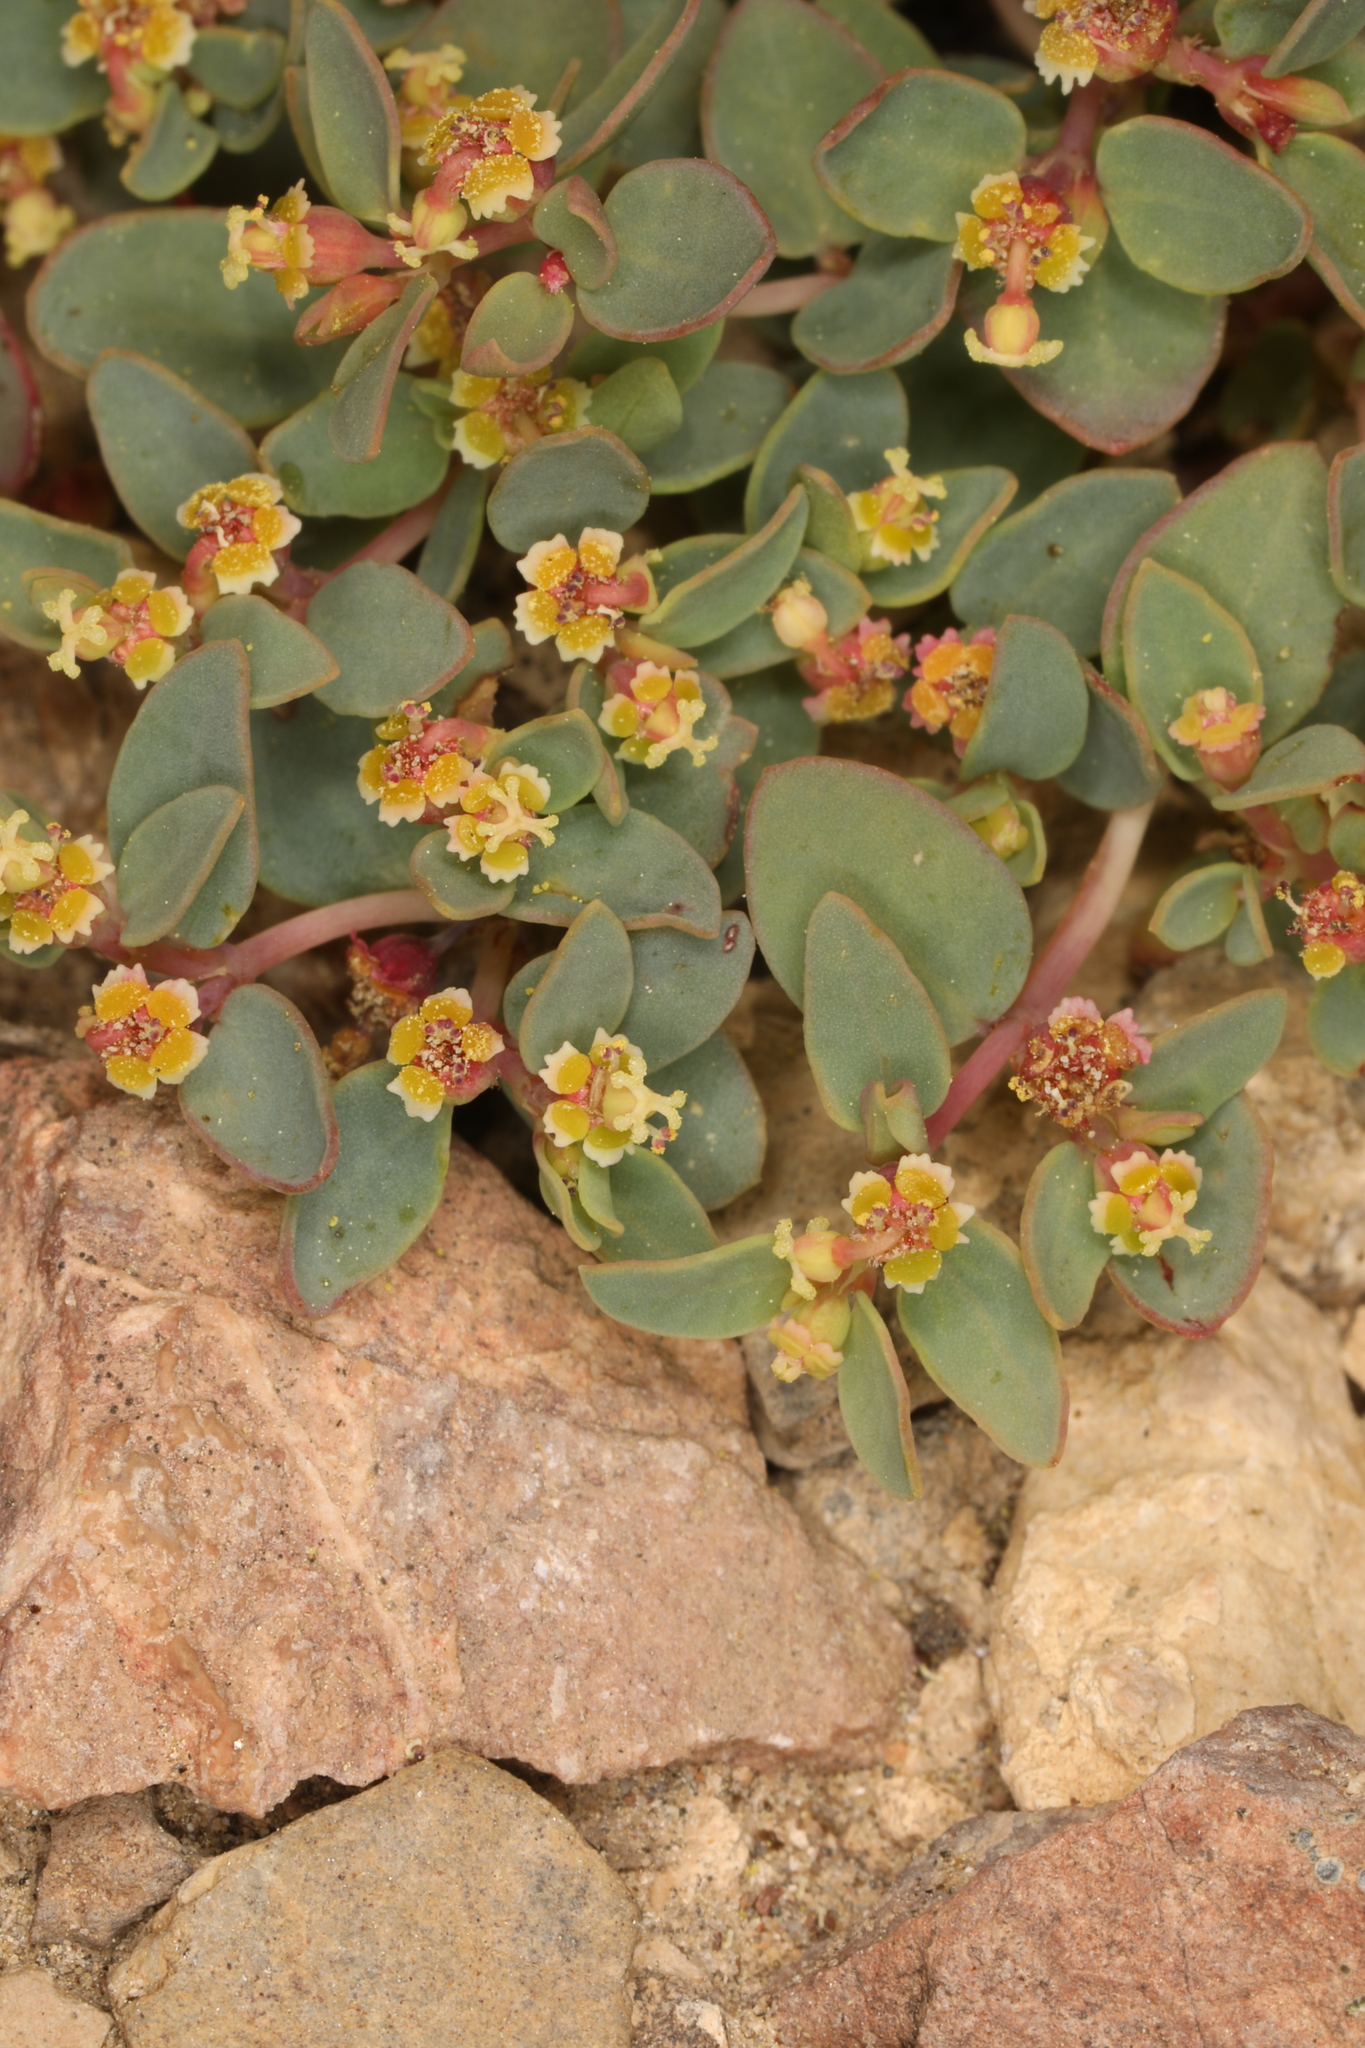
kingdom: Plantae
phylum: Tracheophyta
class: Magnoliopsida
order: Malpighiales
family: Euphorbiaceae
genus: Euphorbia
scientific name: Euphorbia fendleri
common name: Fendler's euphorbia
